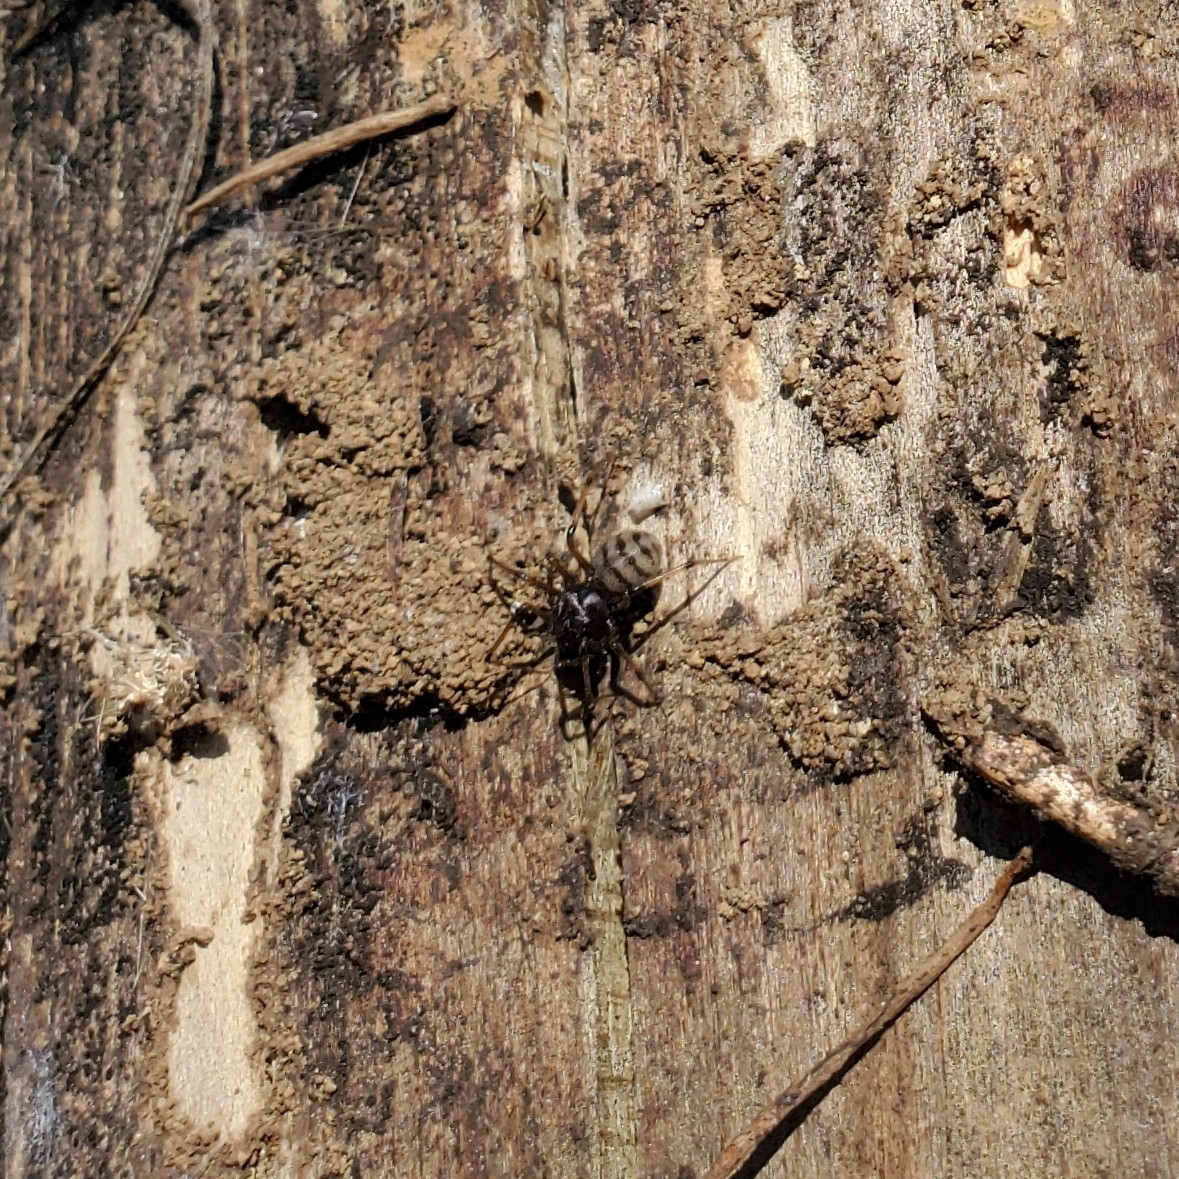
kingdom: Animalia
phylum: Arthropoda
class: Arachnida
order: Araneae
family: Scytodidae
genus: Dictis
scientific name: Dictis striatipes
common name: Spider
